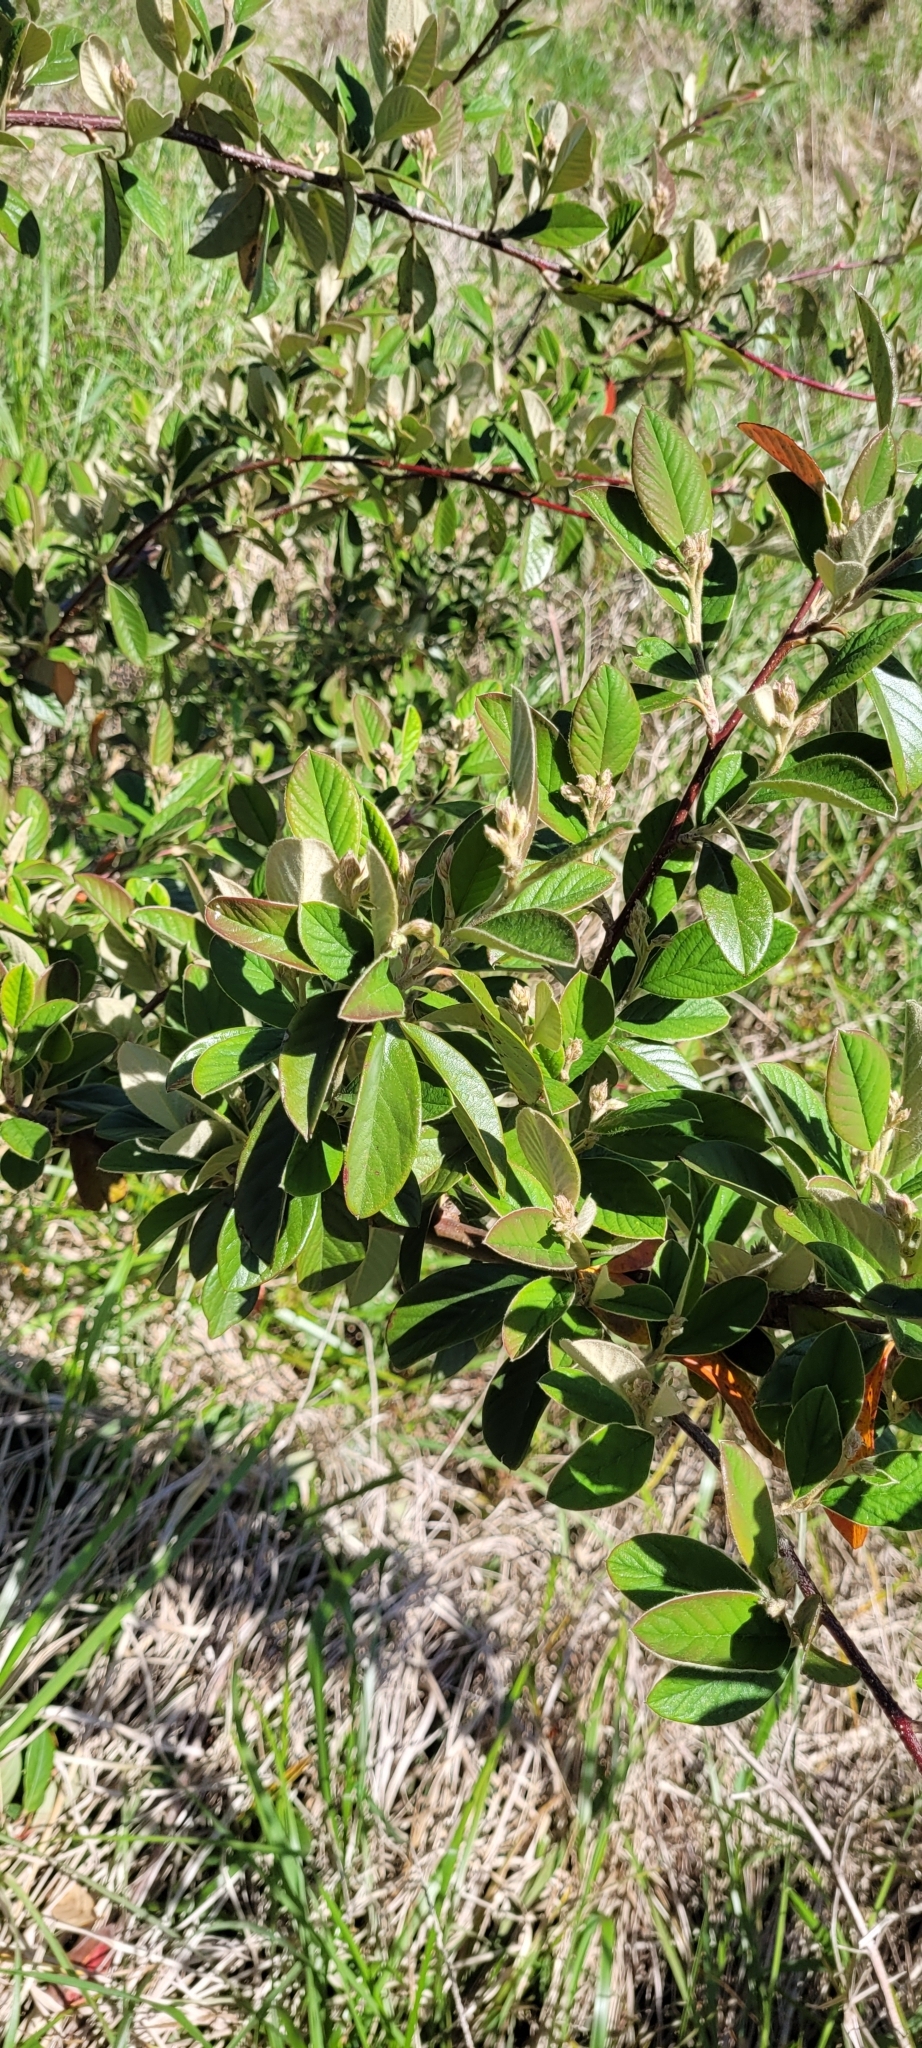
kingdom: Plantae
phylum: Tracheophyta
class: Magnoliopsida
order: Rosales
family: Rosaceae
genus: Cotoneaster
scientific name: Cotoneaster coriaceus
